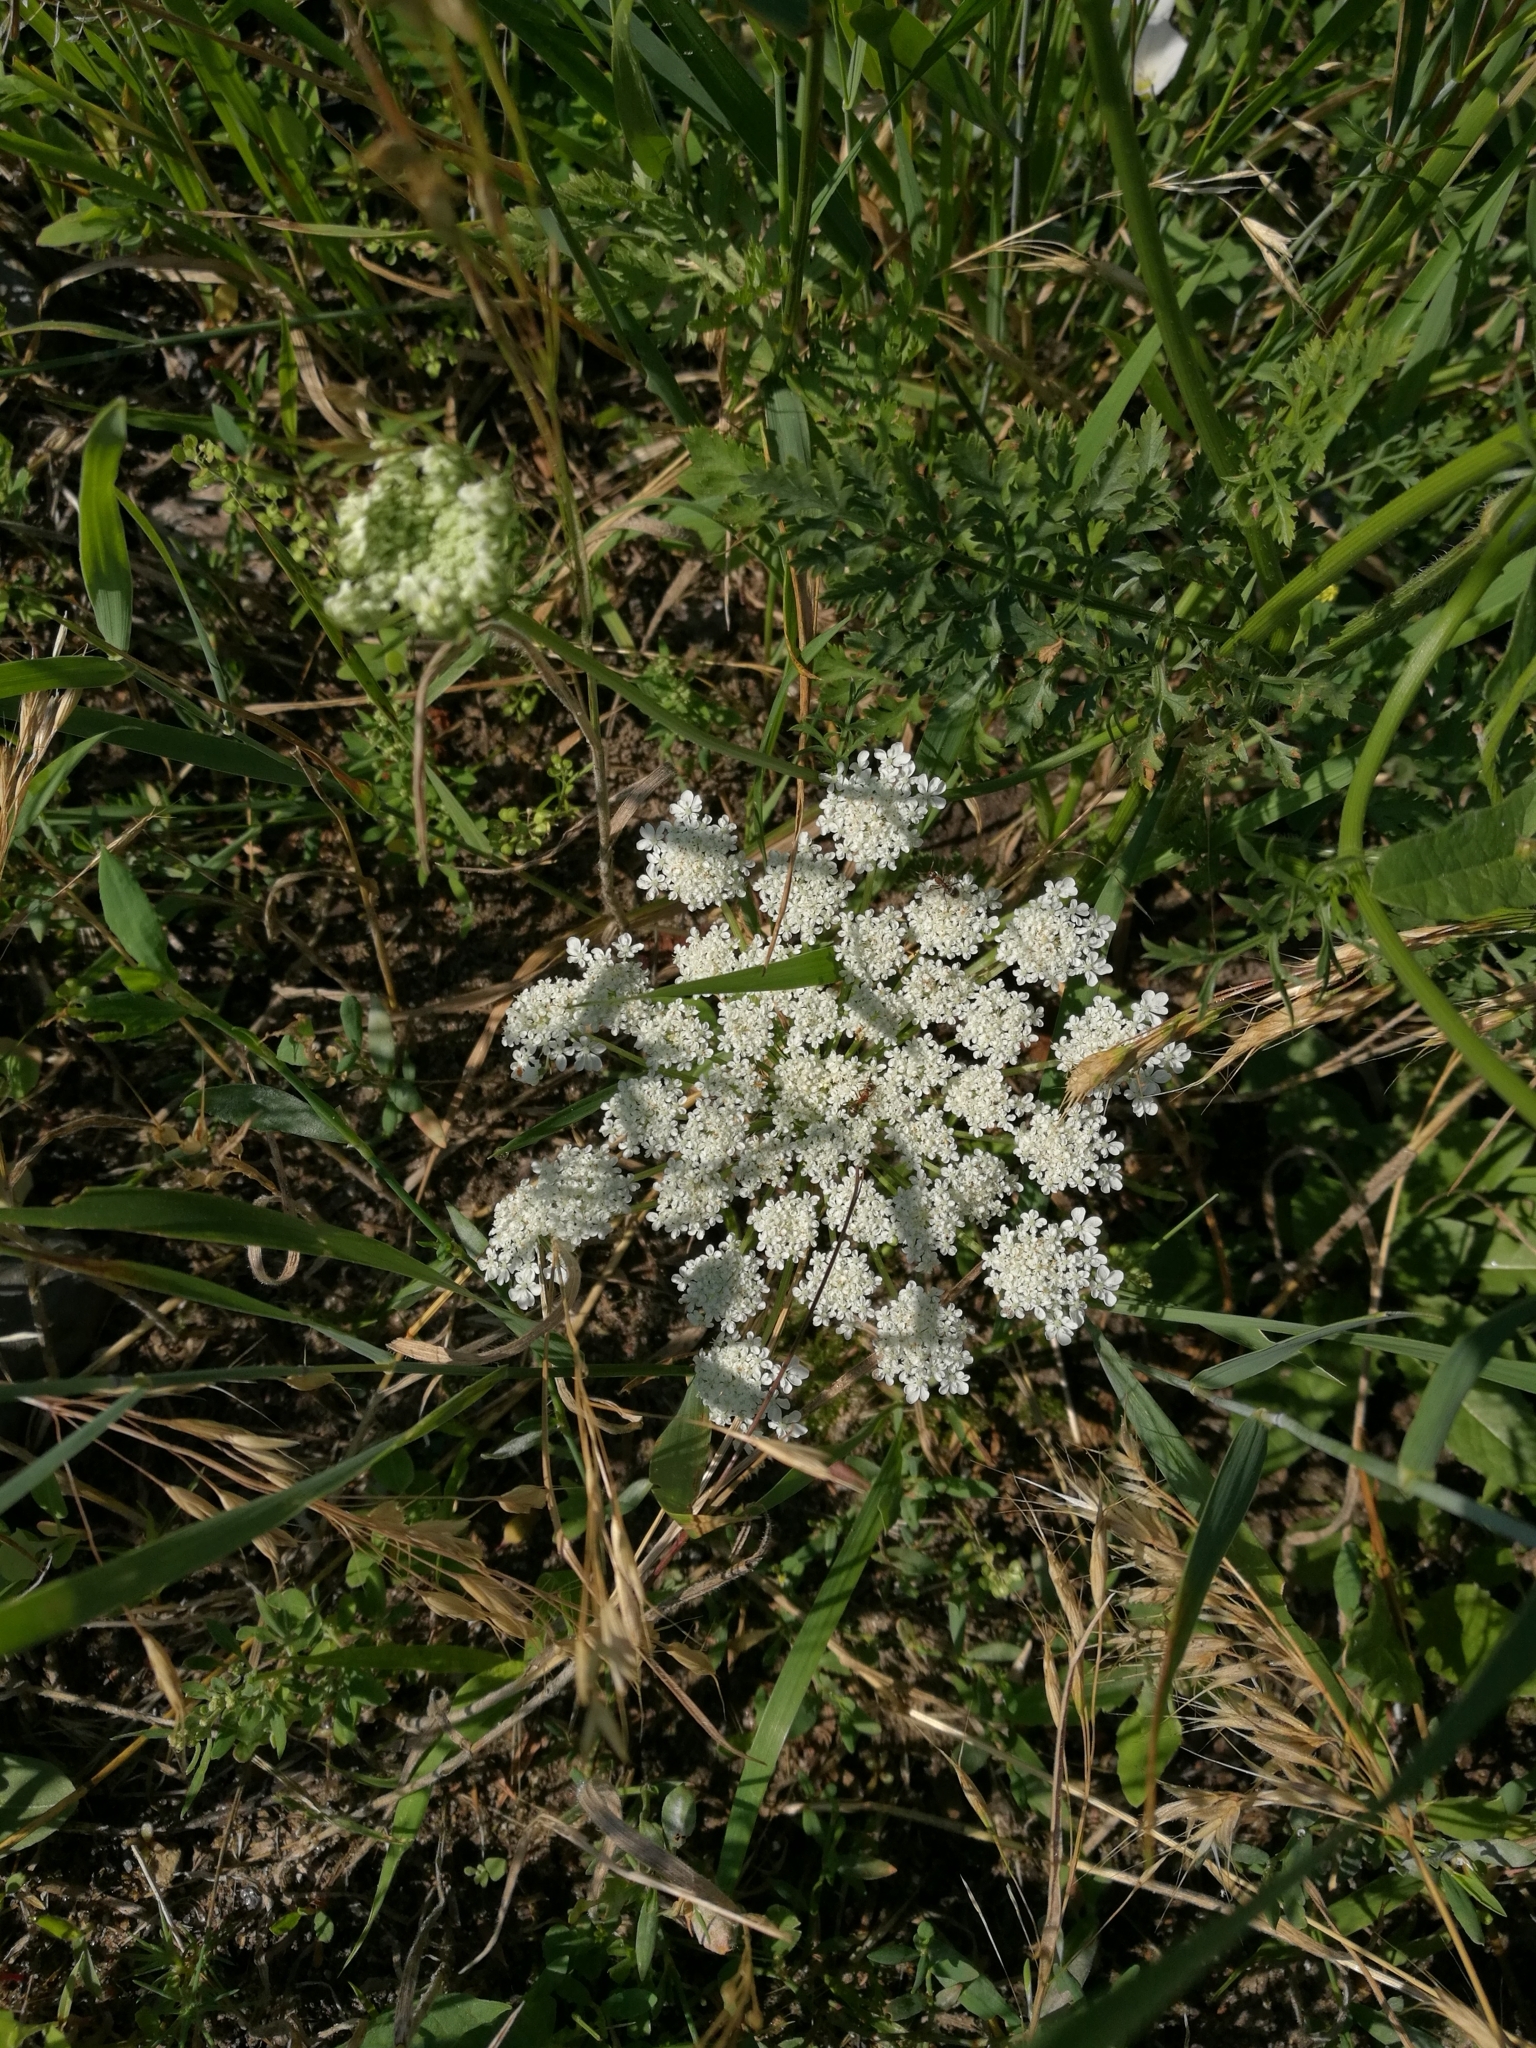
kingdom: Plantae
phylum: Tracheophyta
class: Magnoliopsida
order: Apiales
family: Apiaceae
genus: Daucus
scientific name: Daucus carota
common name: Wild carrot
